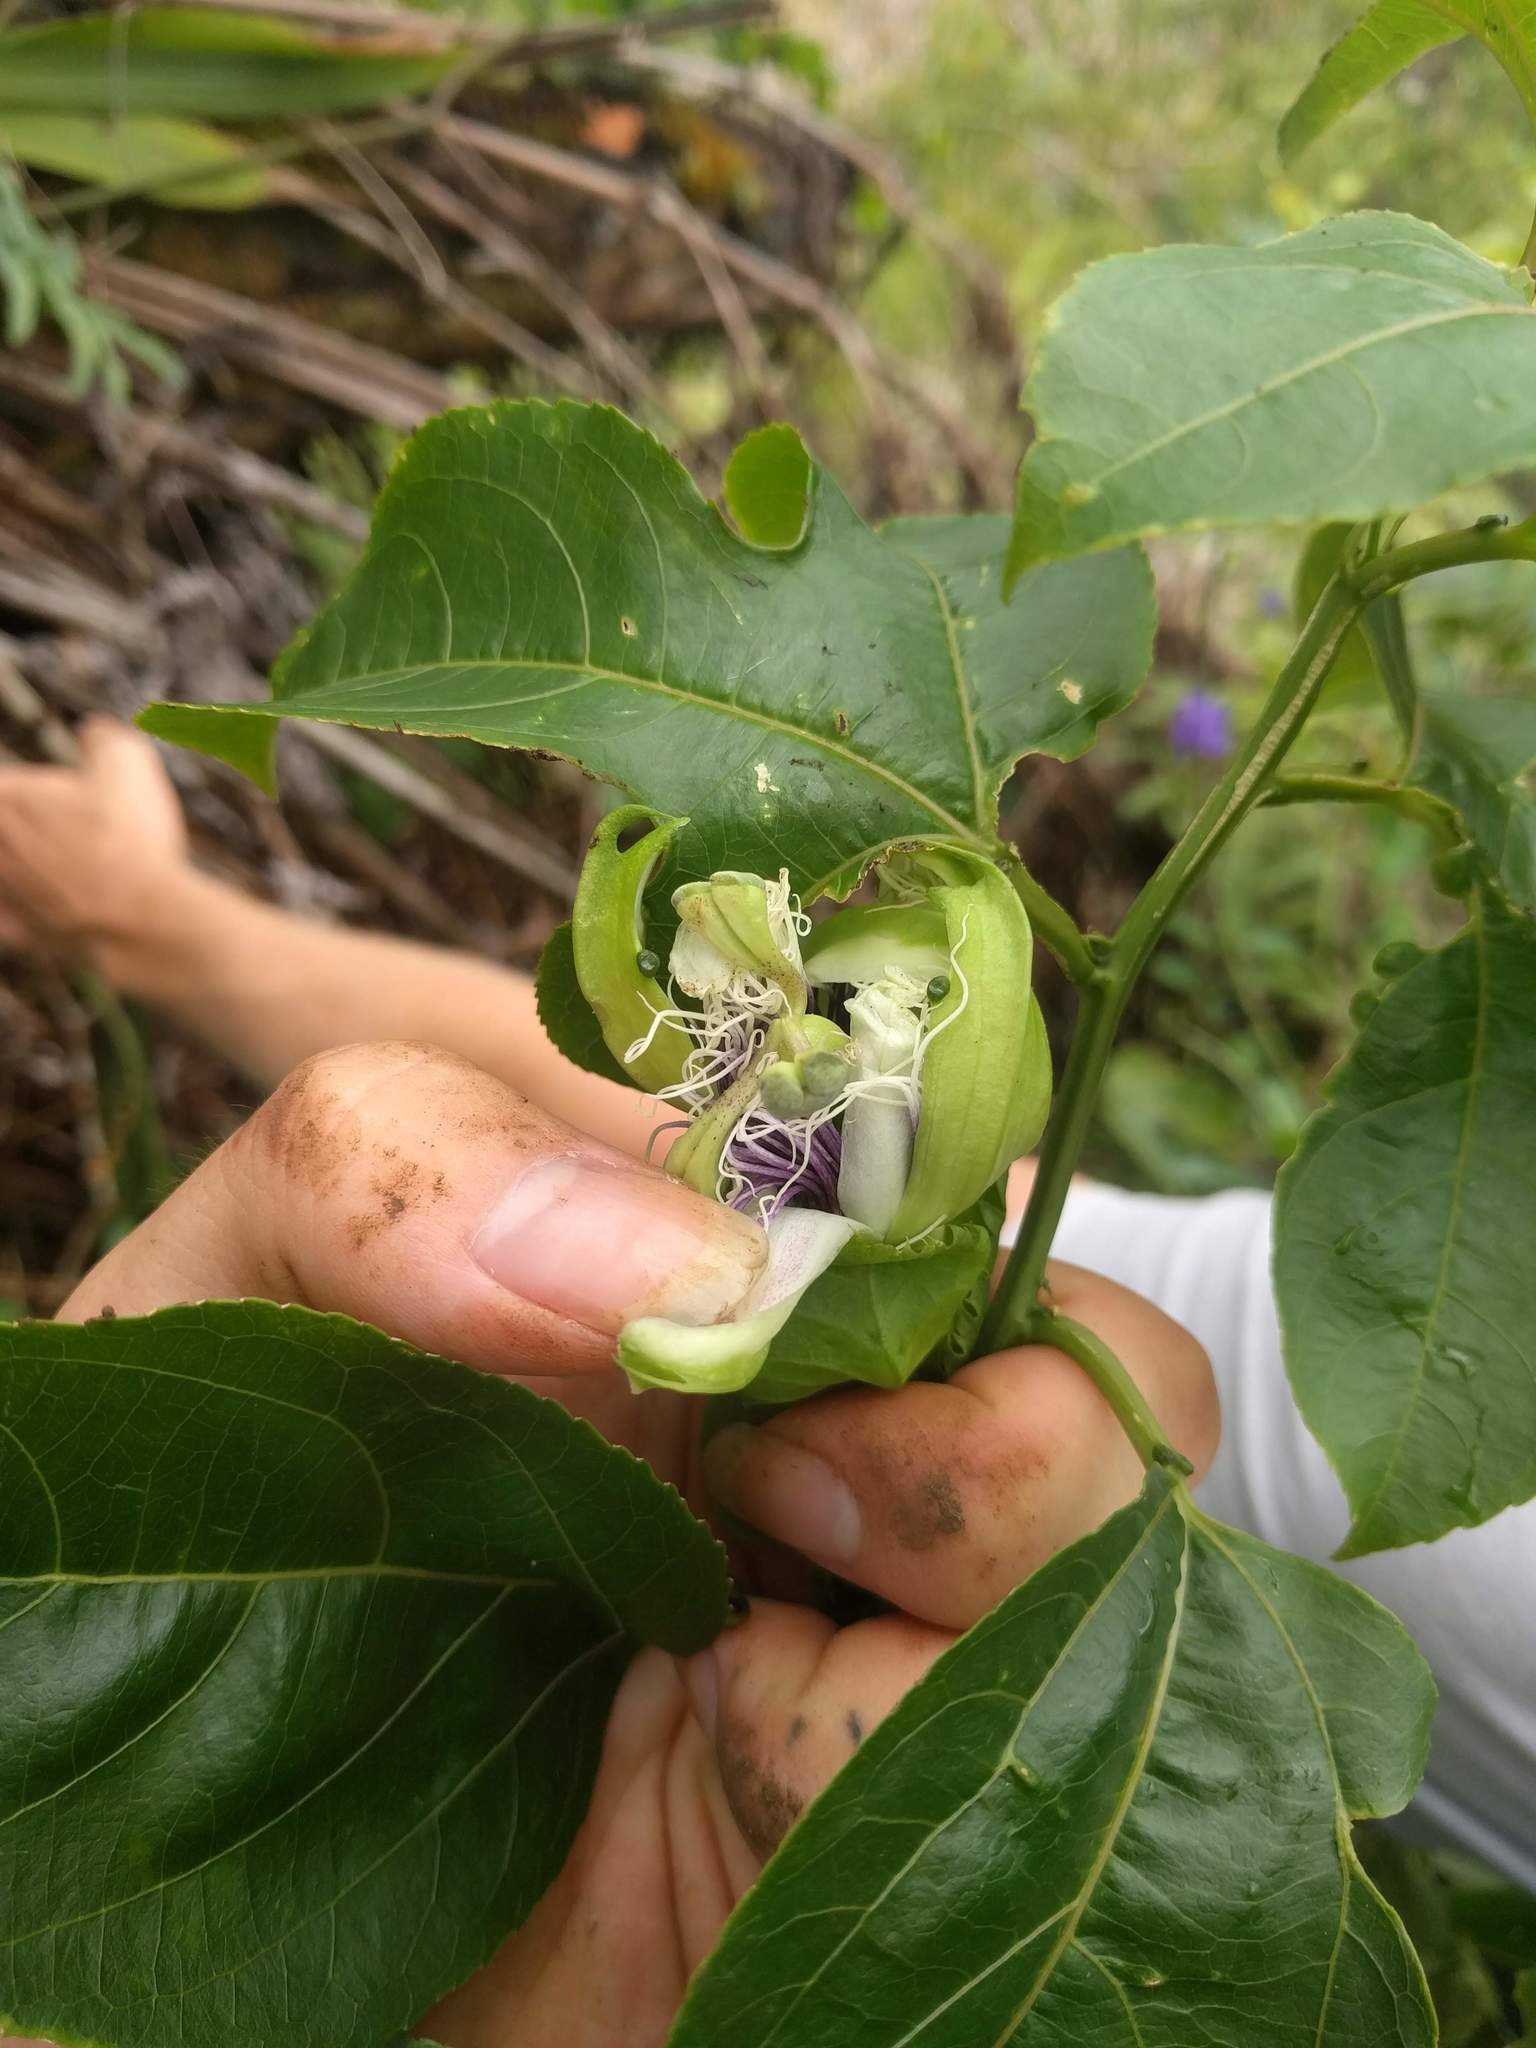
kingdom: Plantae
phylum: Tracheophyta
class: Magnoliopsida
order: Malpighiales
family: Passifloraceae
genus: Passiflora
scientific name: Passiflora edulis
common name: Purple granadilla
